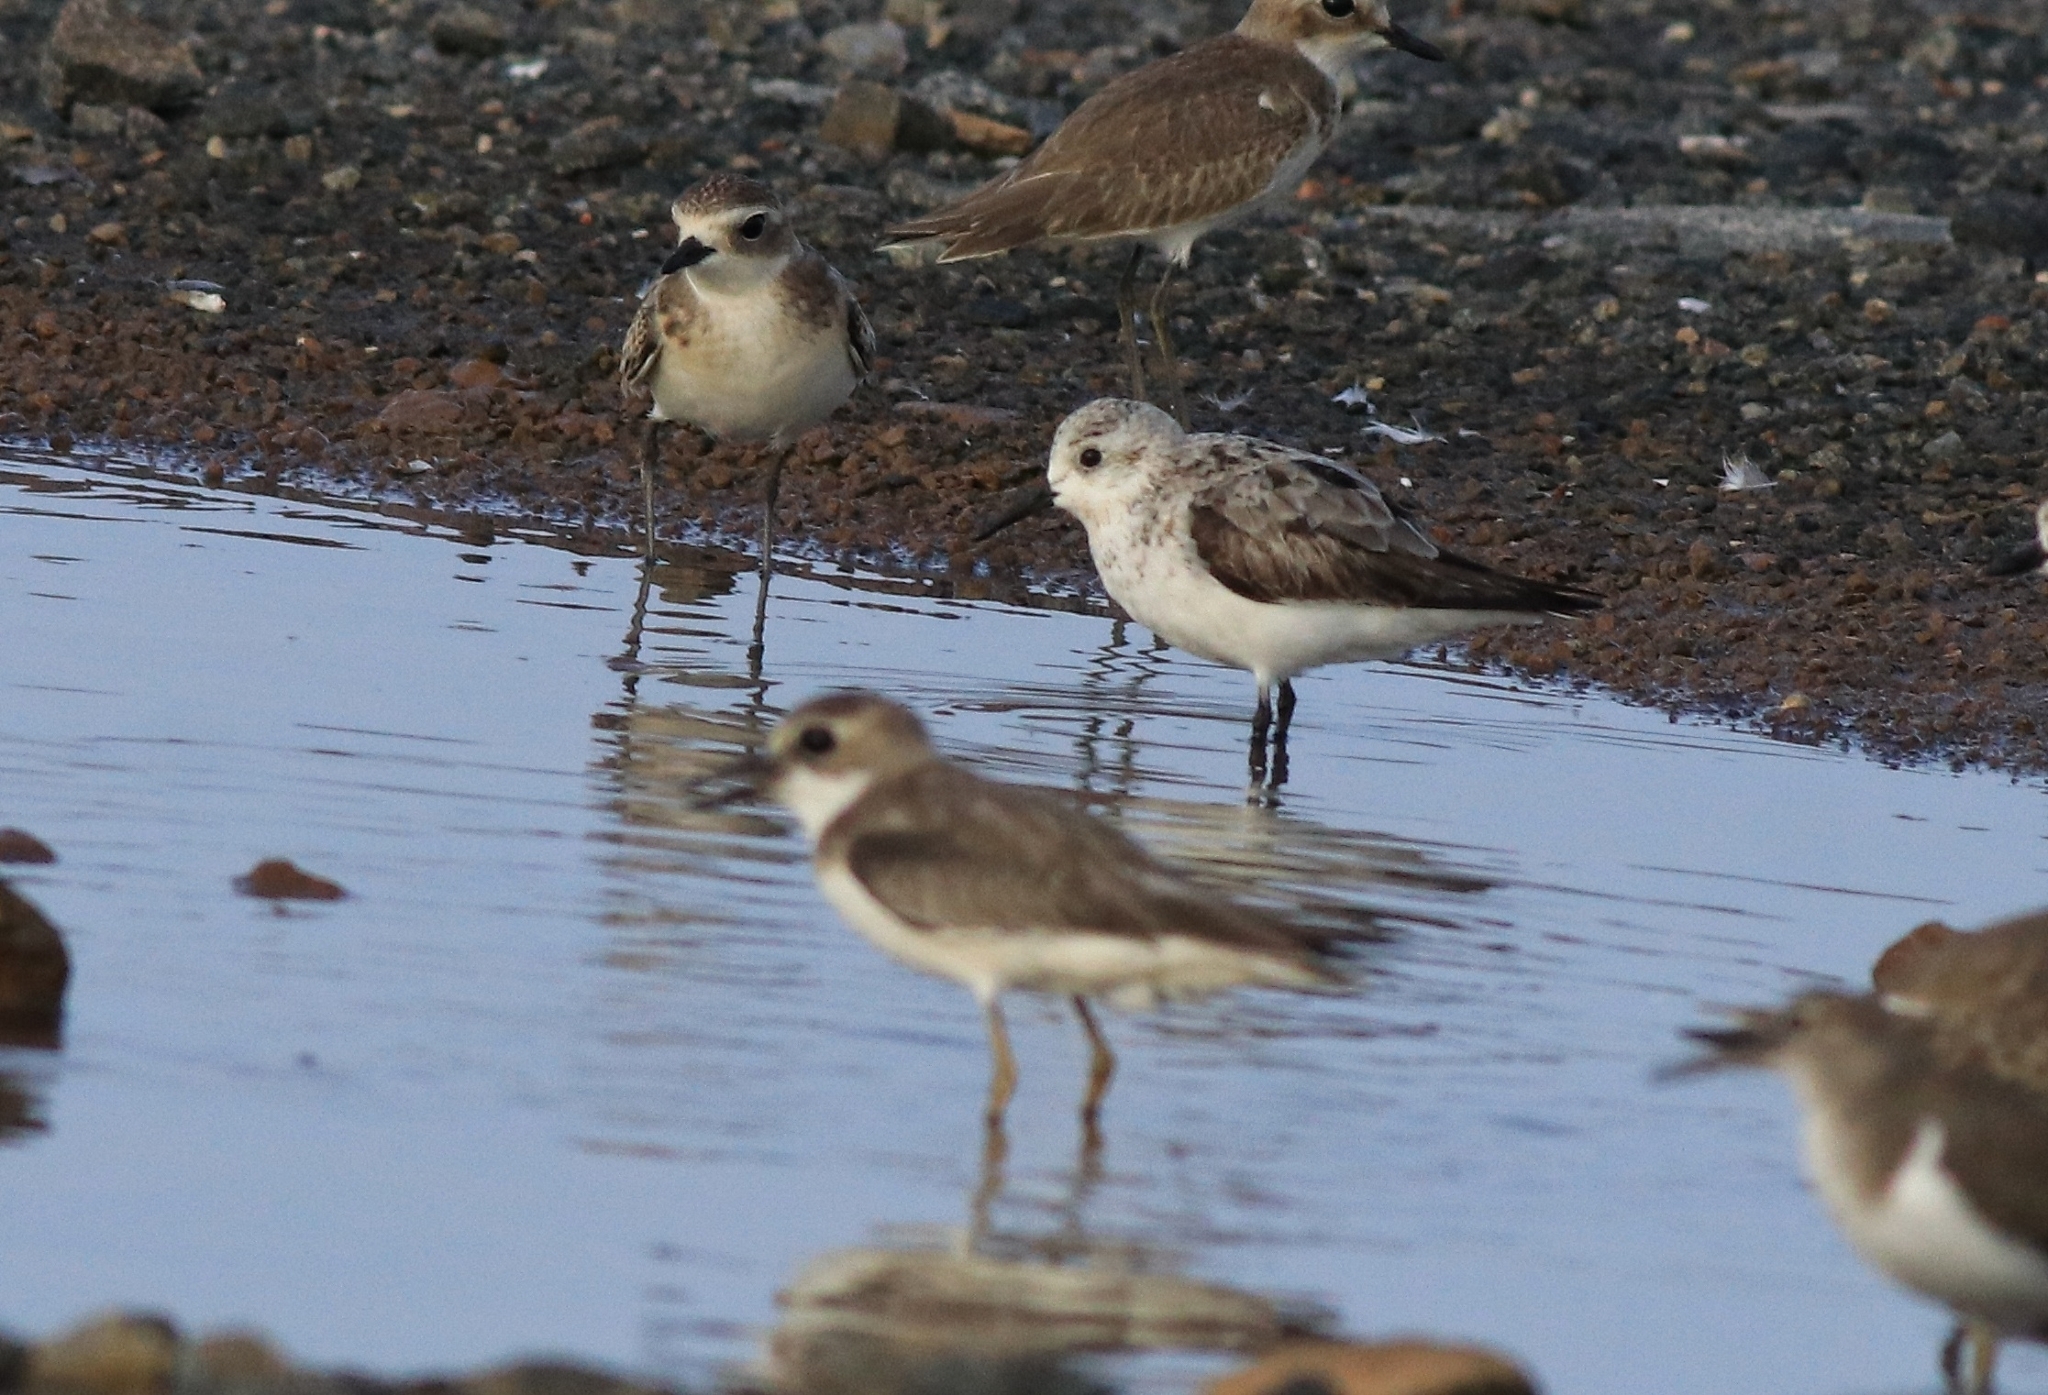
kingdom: Animalia
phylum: Chordata
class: Aves
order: Charadriiformes
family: Scolopacidae
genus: Calidris
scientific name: Calidris alba
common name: Sanderling
